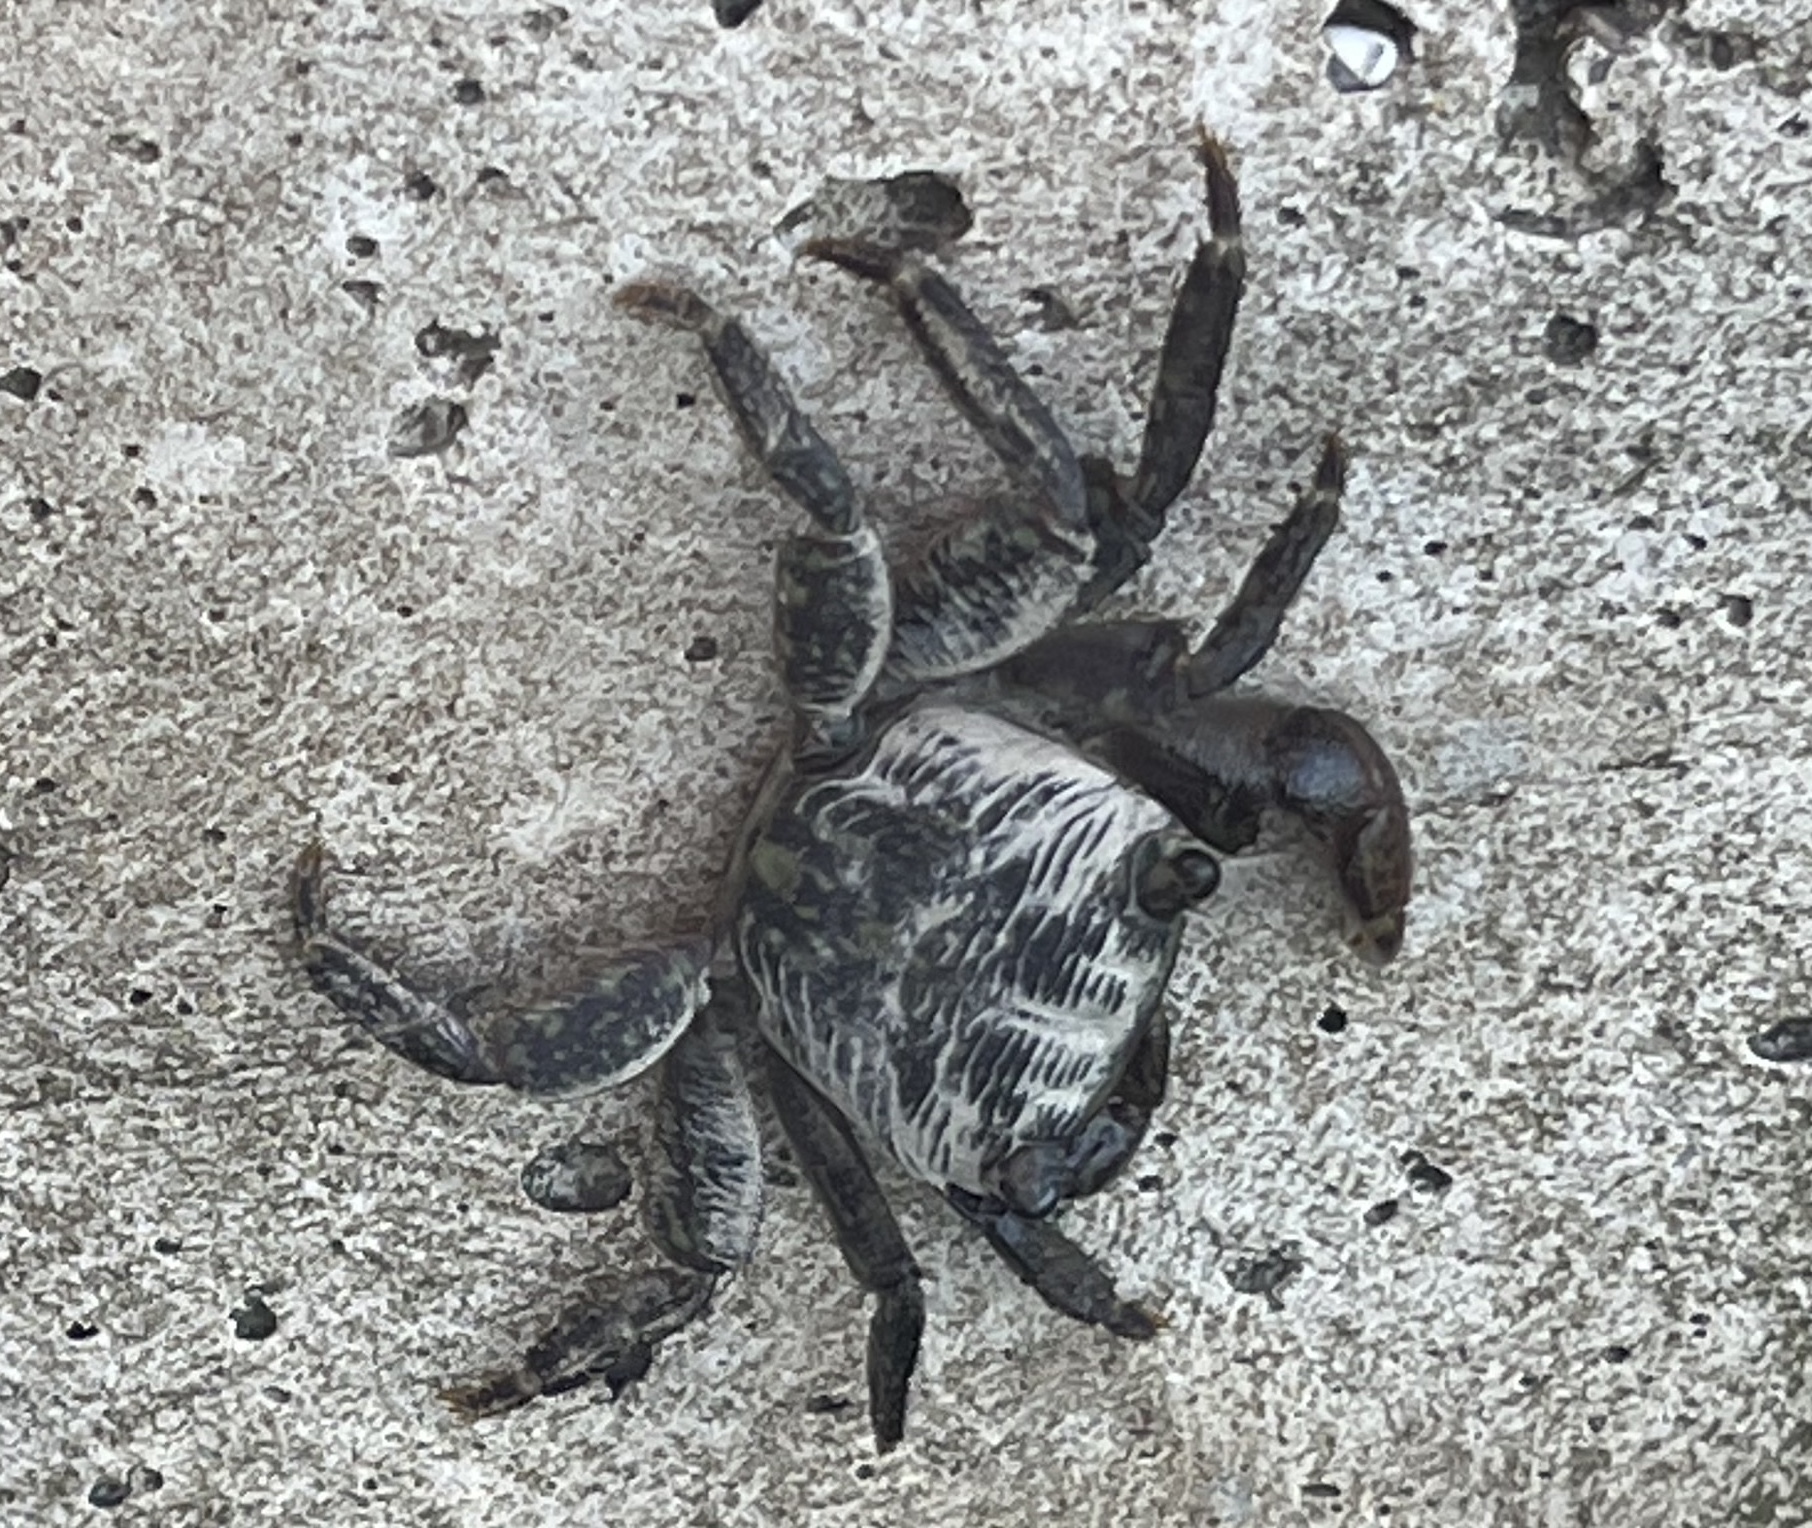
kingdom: Animalia
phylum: Arthropoda
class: Malacostraca
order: Decapoda
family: Grapsidae
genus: Pachygrapsus
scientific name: Pachygrapsus crassipes
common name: Striped shore crab
